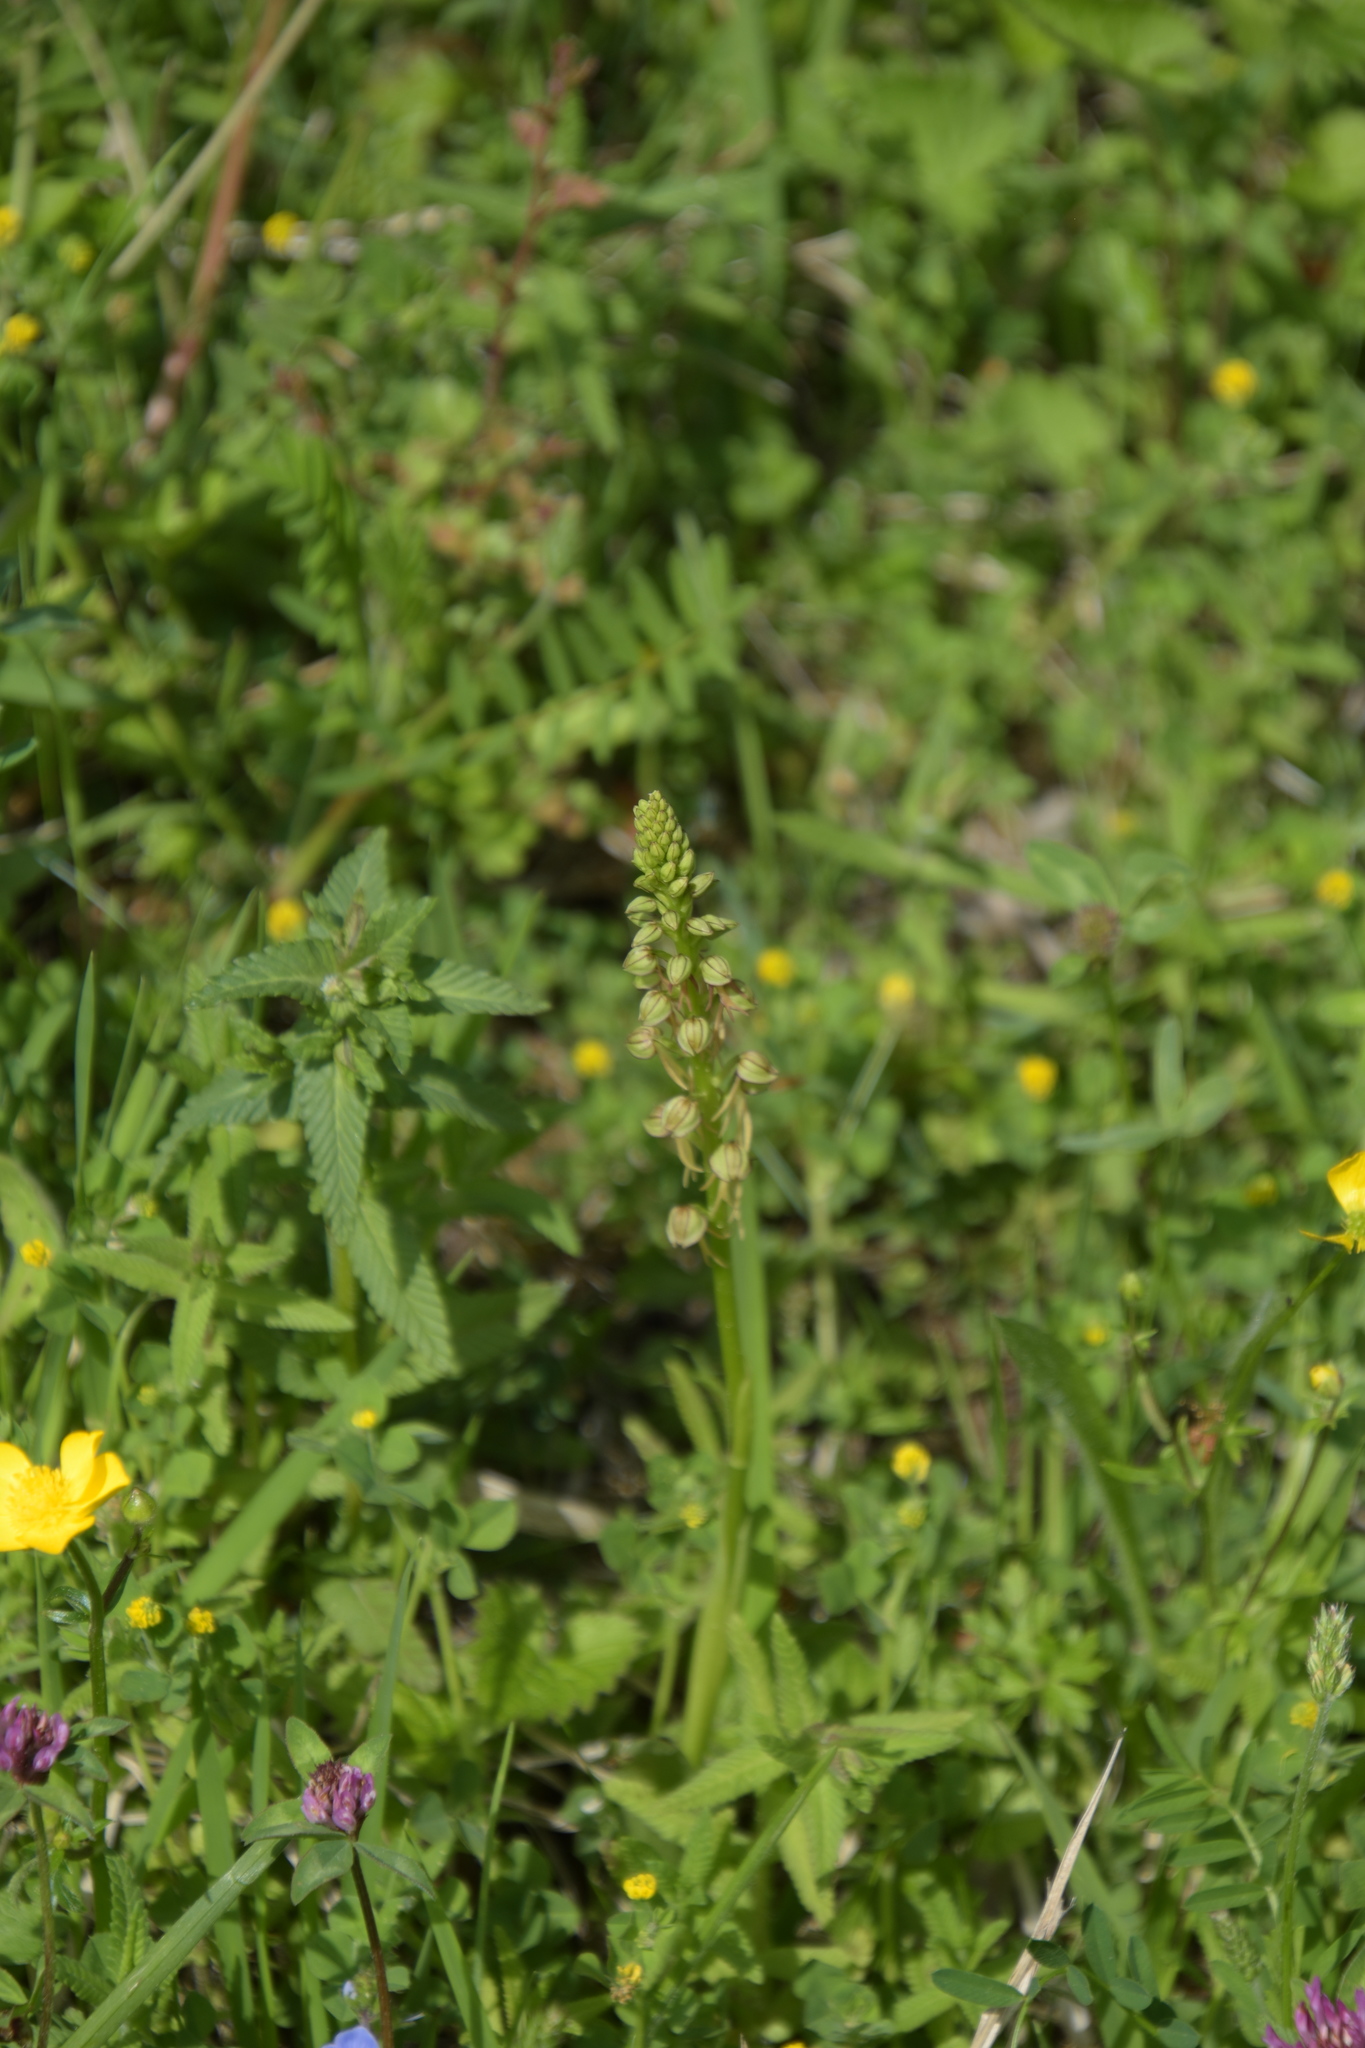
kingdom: Plantae
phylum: Tracheophyta
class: Liliopsida
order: Asparagales
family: Orchidaceae
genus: Orchis
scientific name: Orchis anthropophora
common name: Man orchid
